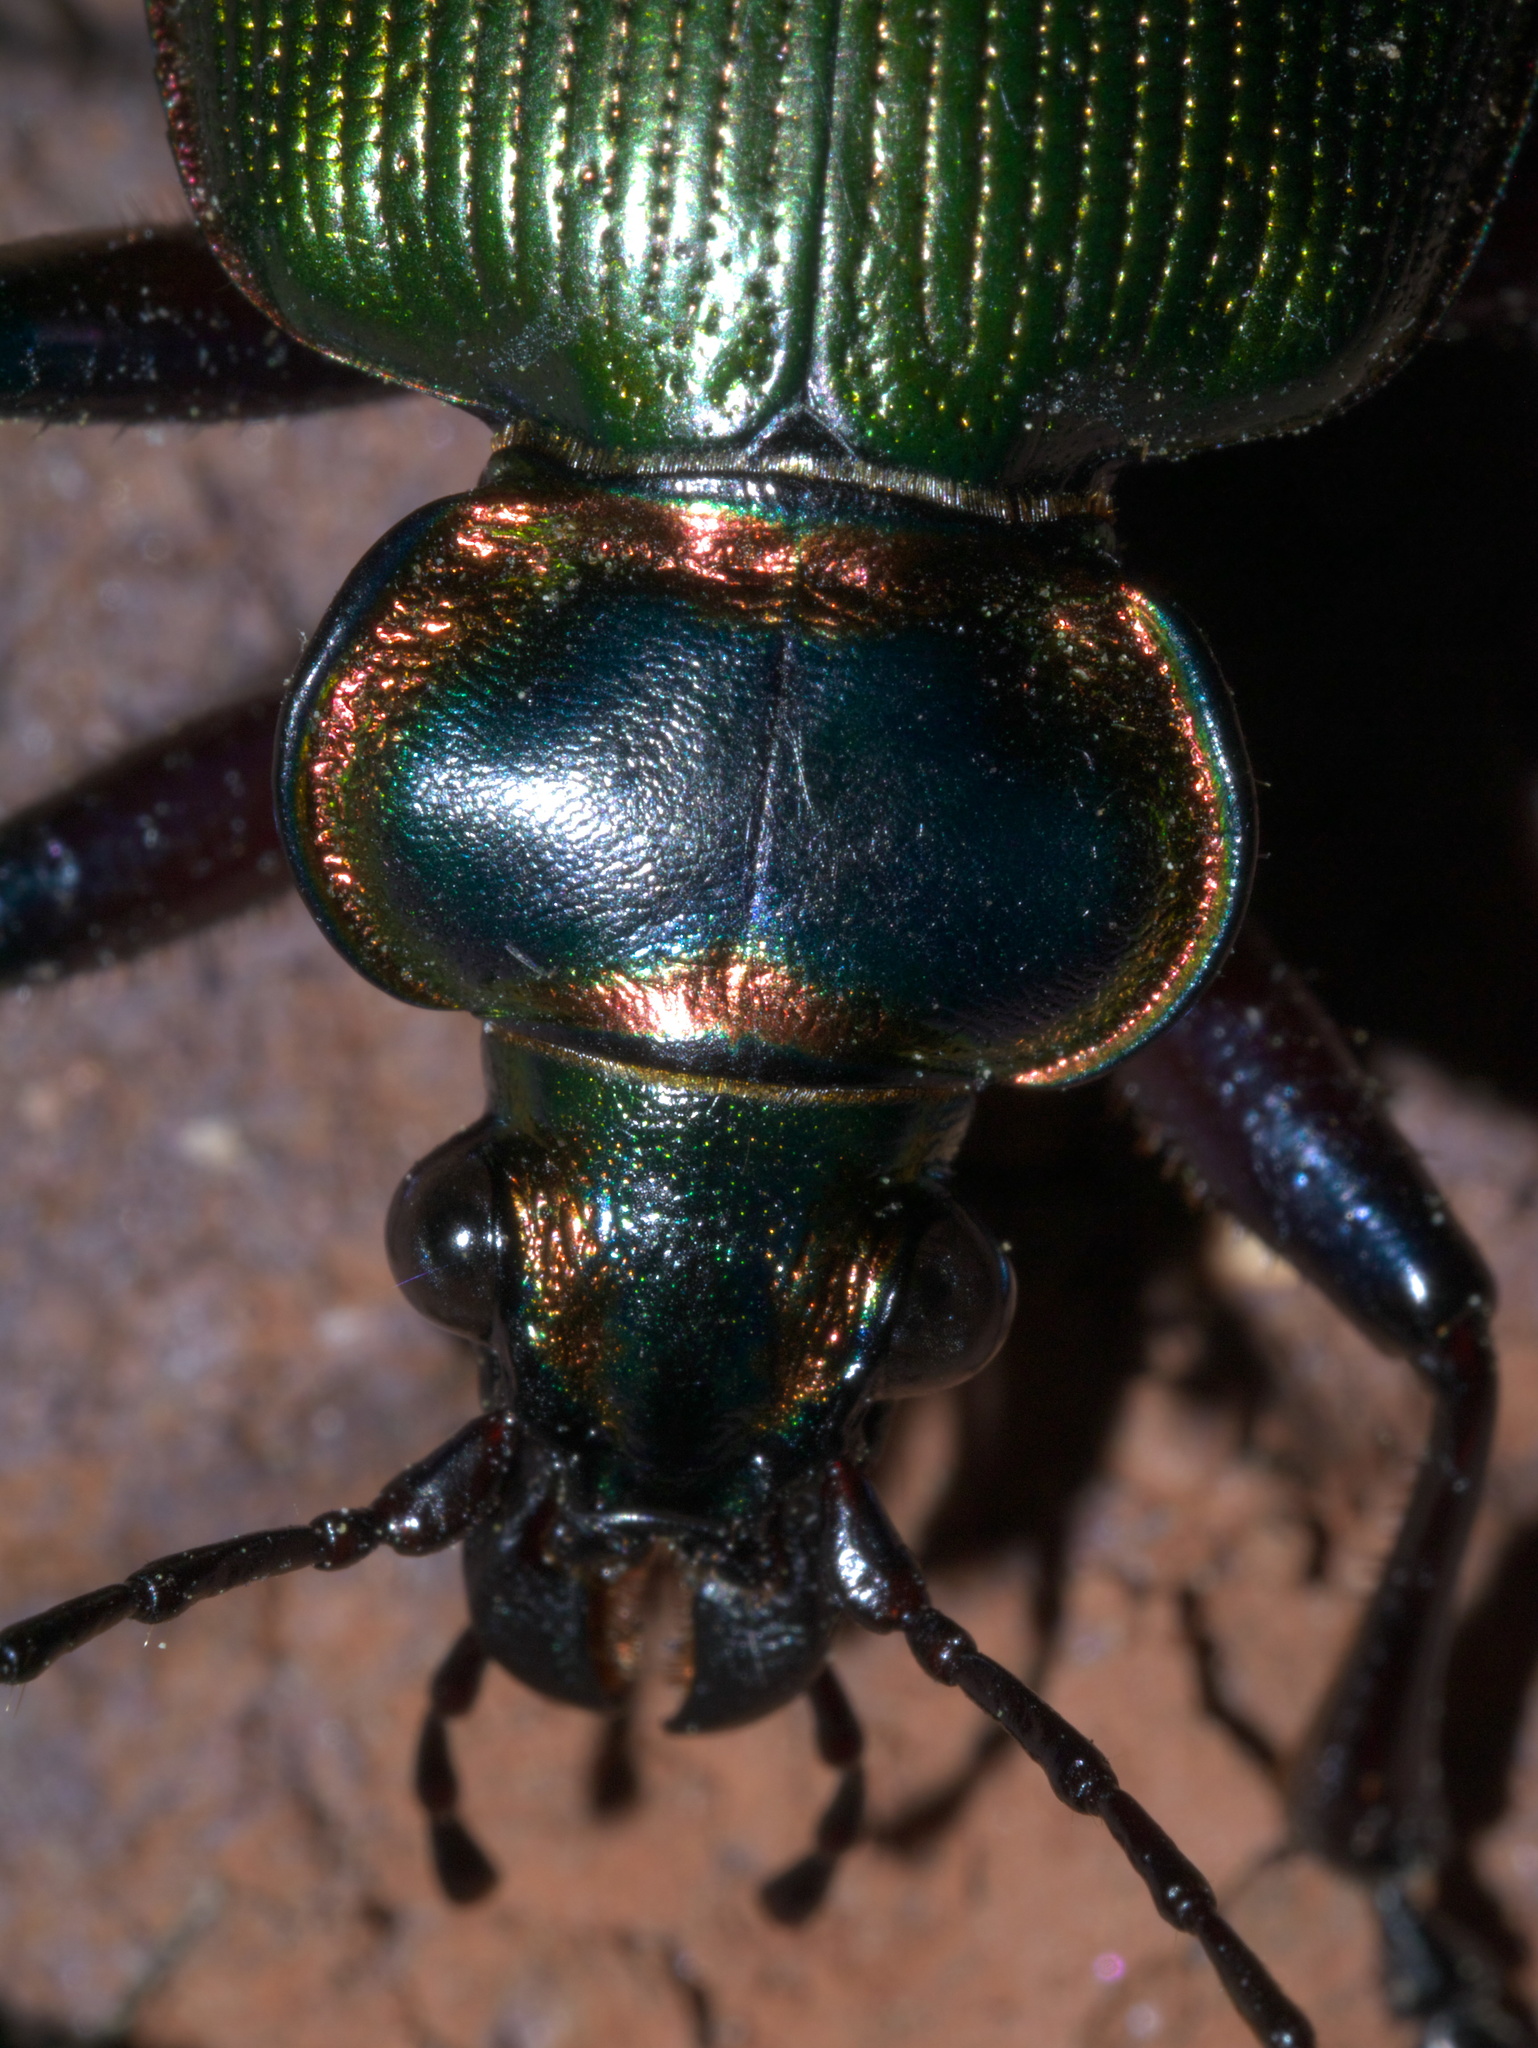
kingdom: Animalia
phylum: Arthropoda
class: Insecta
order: Coleoptera
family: Carabidae
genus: Calosoma
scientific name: Calosoma scrutator
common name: Fiery searcher beetle
